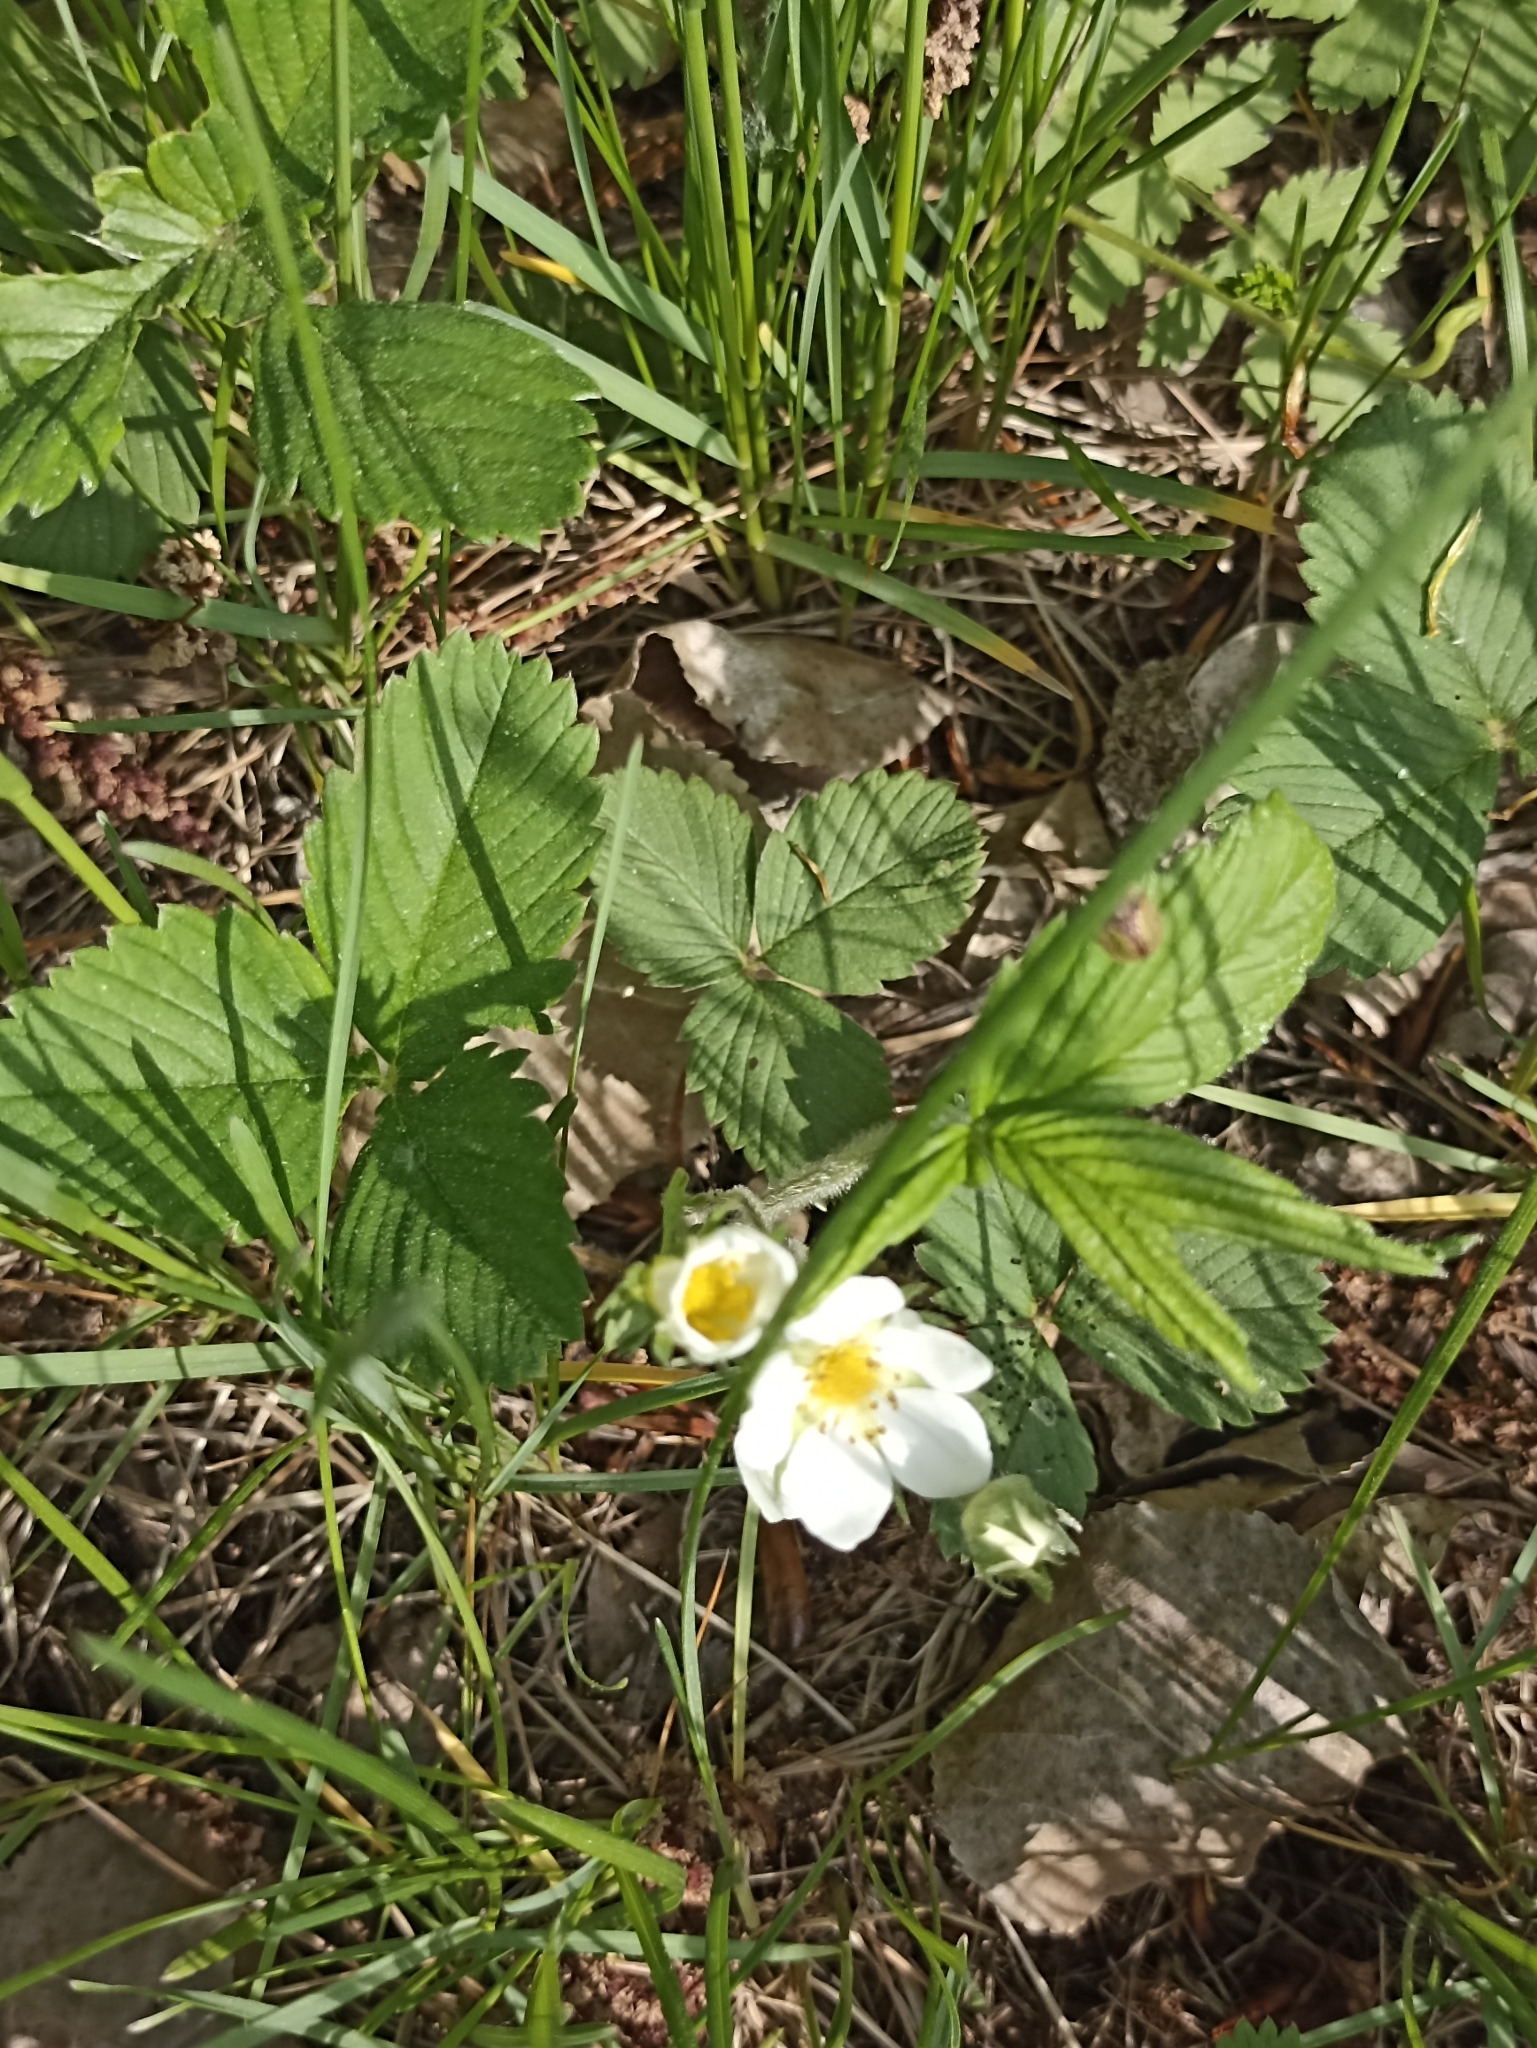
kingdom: Plantae
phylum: Tracheophyta
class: Magnoliopsida
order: Rosales
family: Rosaceae
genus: Fragaria
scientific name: Fragaria viridis
